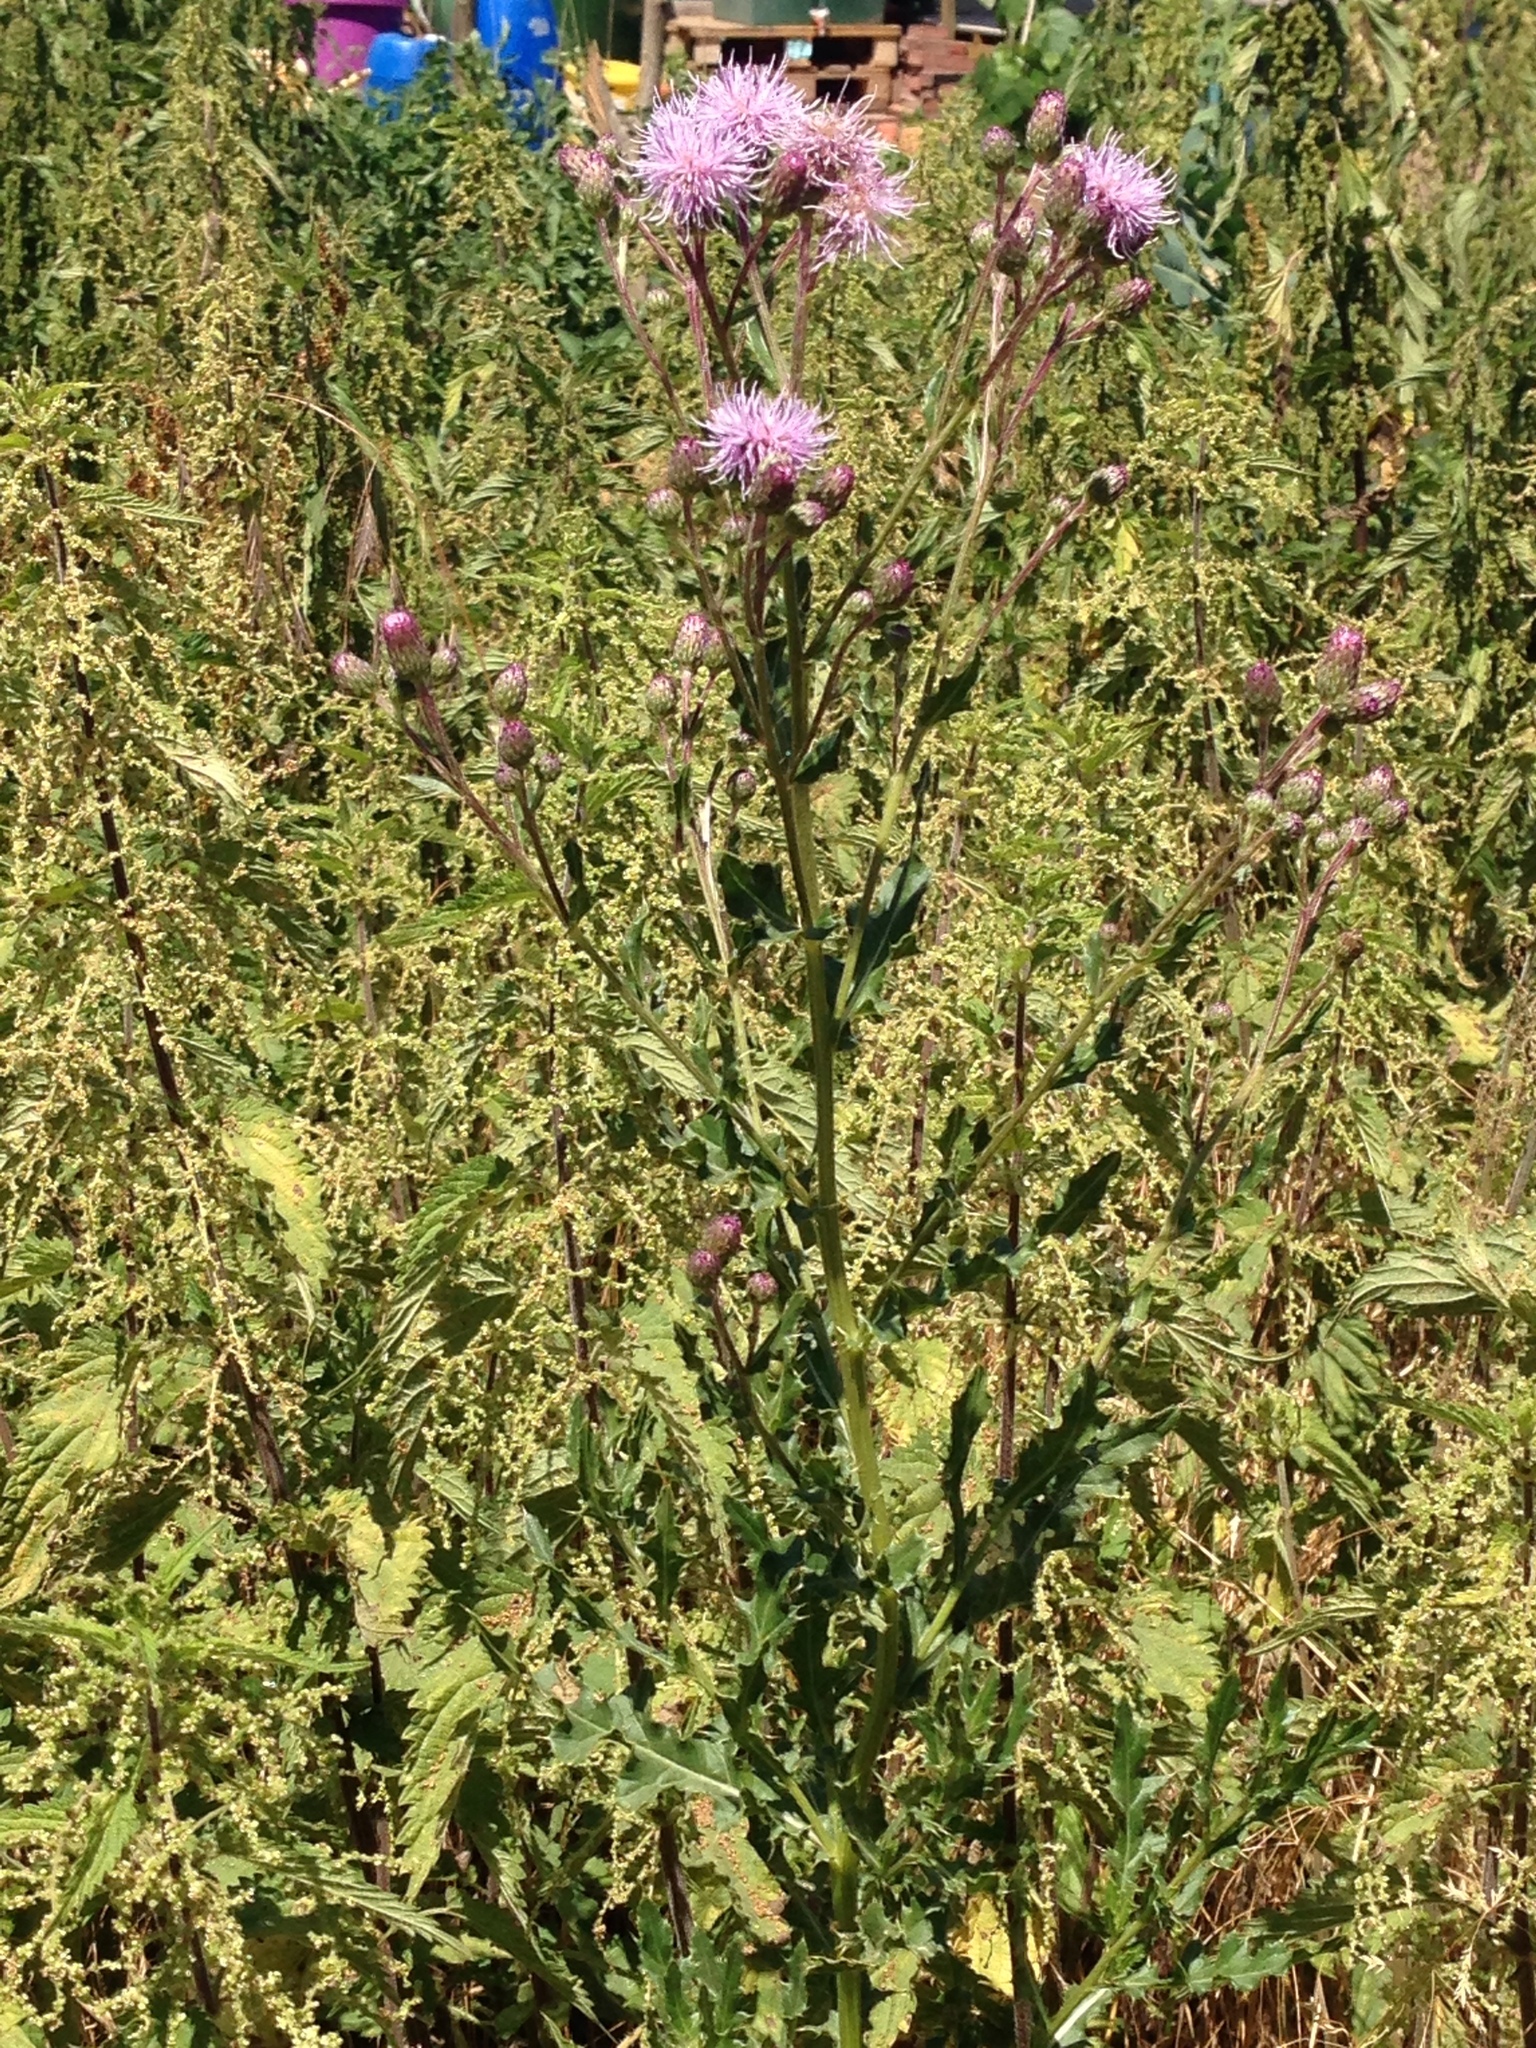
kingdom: Plantae
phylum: Tracheophyta
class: Magnoliopsida
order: Asterales
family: Asteraceae
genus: Cirsium
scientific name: Cirsium arvense
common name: Creeping thistle
